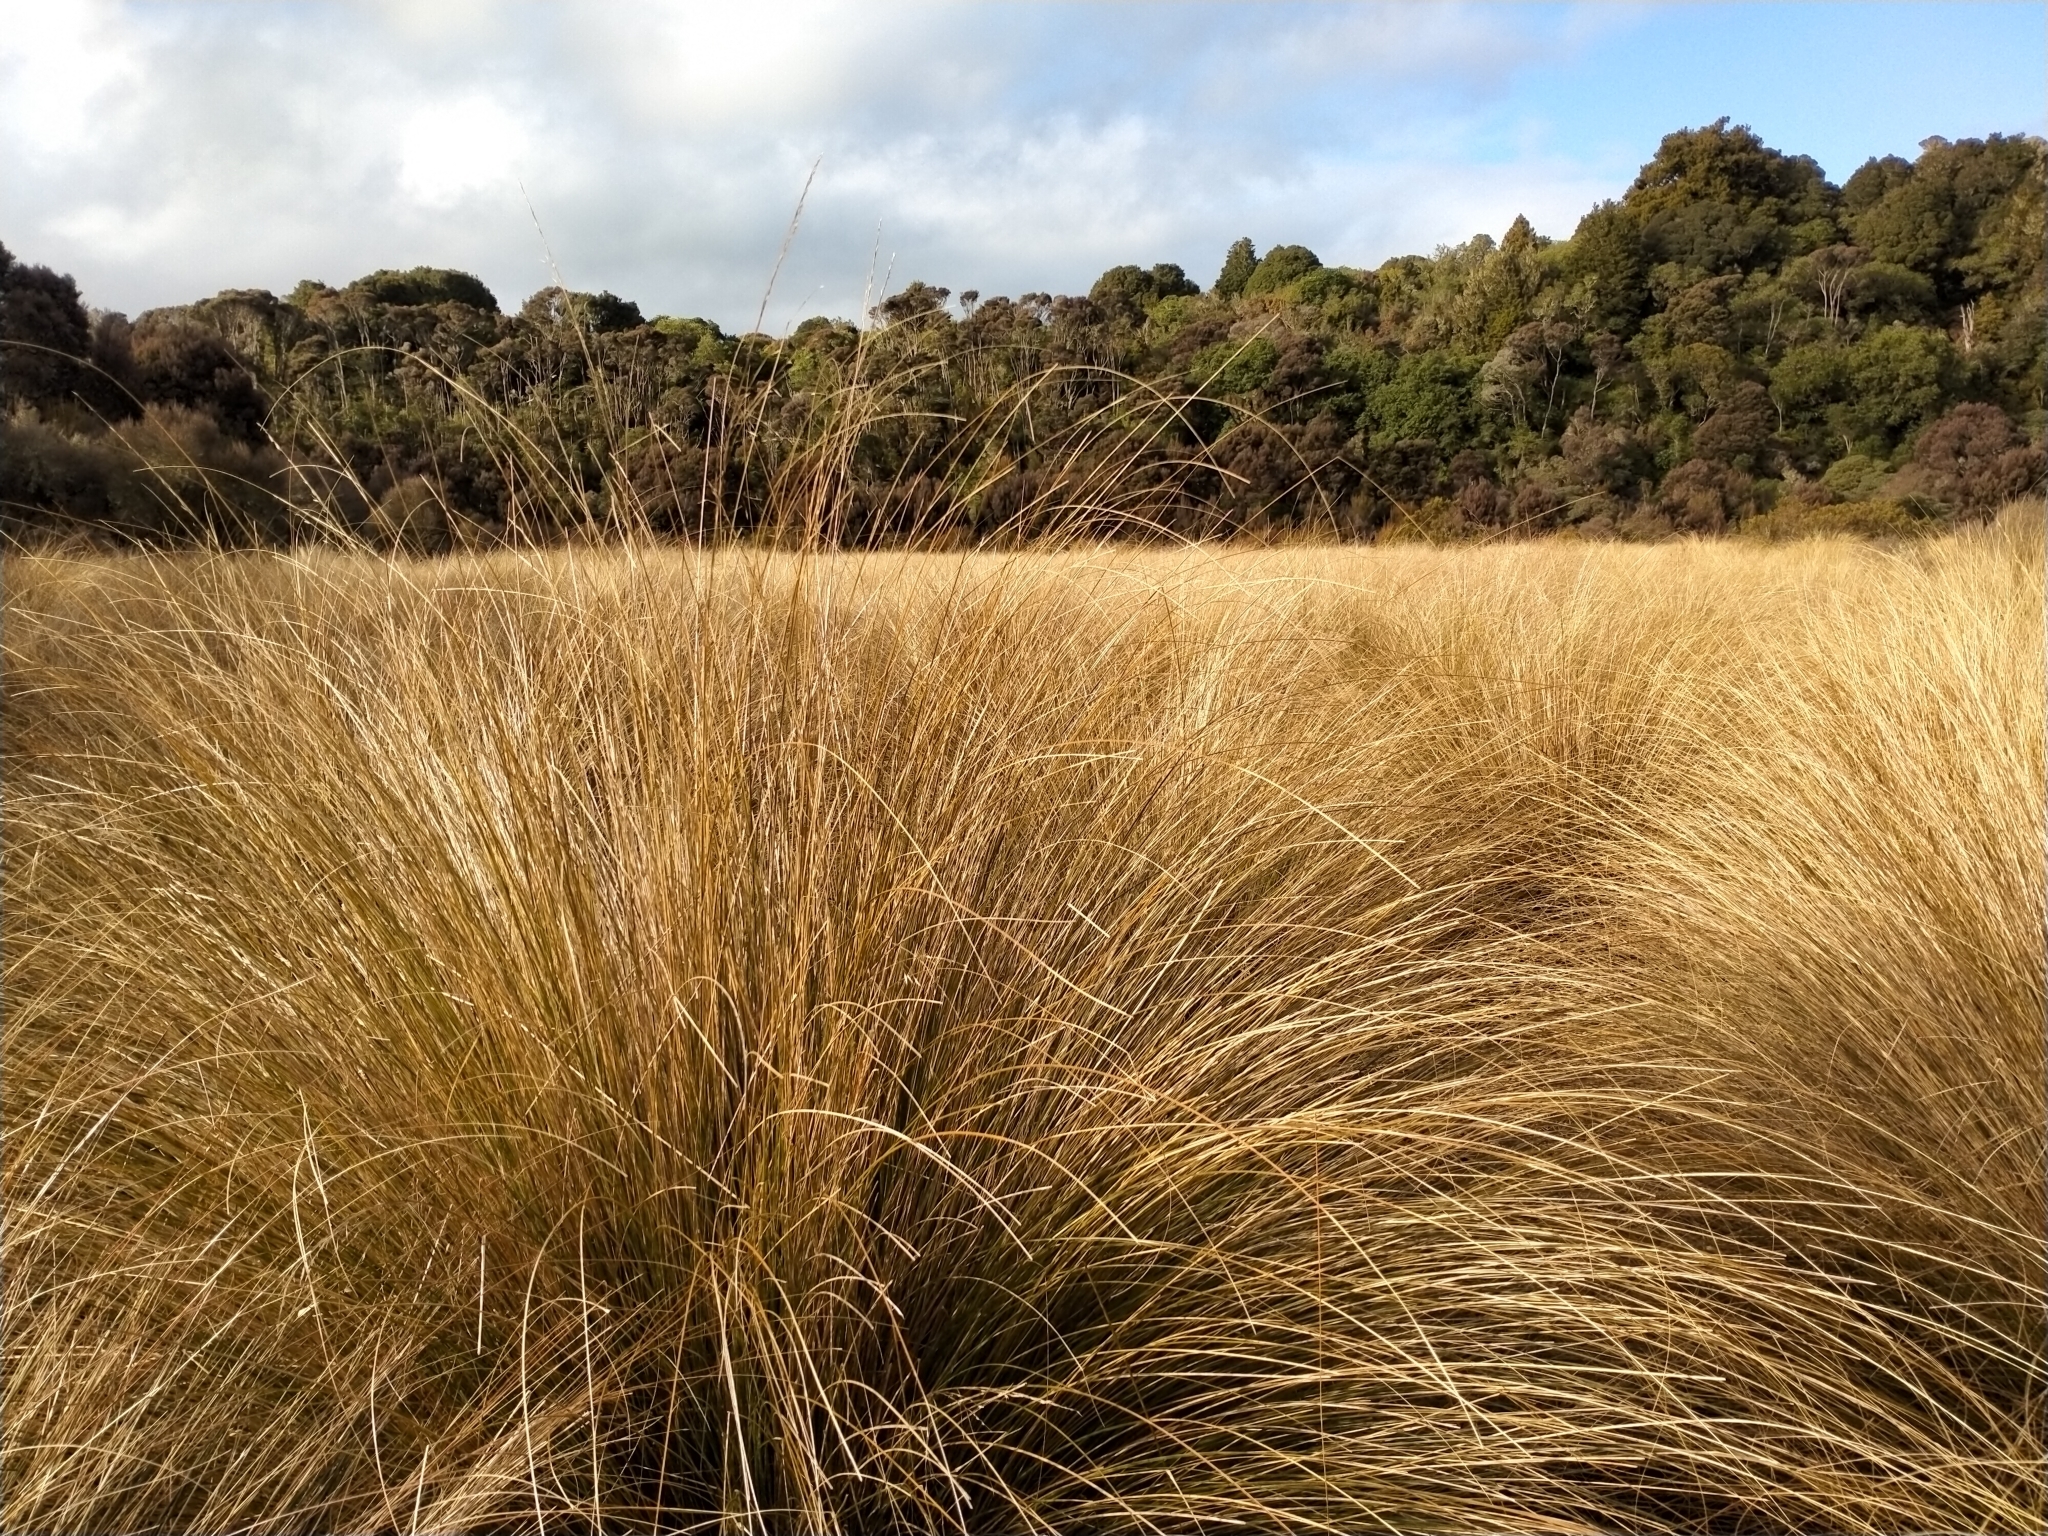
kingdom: Plantae
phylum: Tracheophyta
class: Liliopsida
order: Poales
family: Poaceae
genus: Chionochloa
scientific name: Chionochloa rubra
